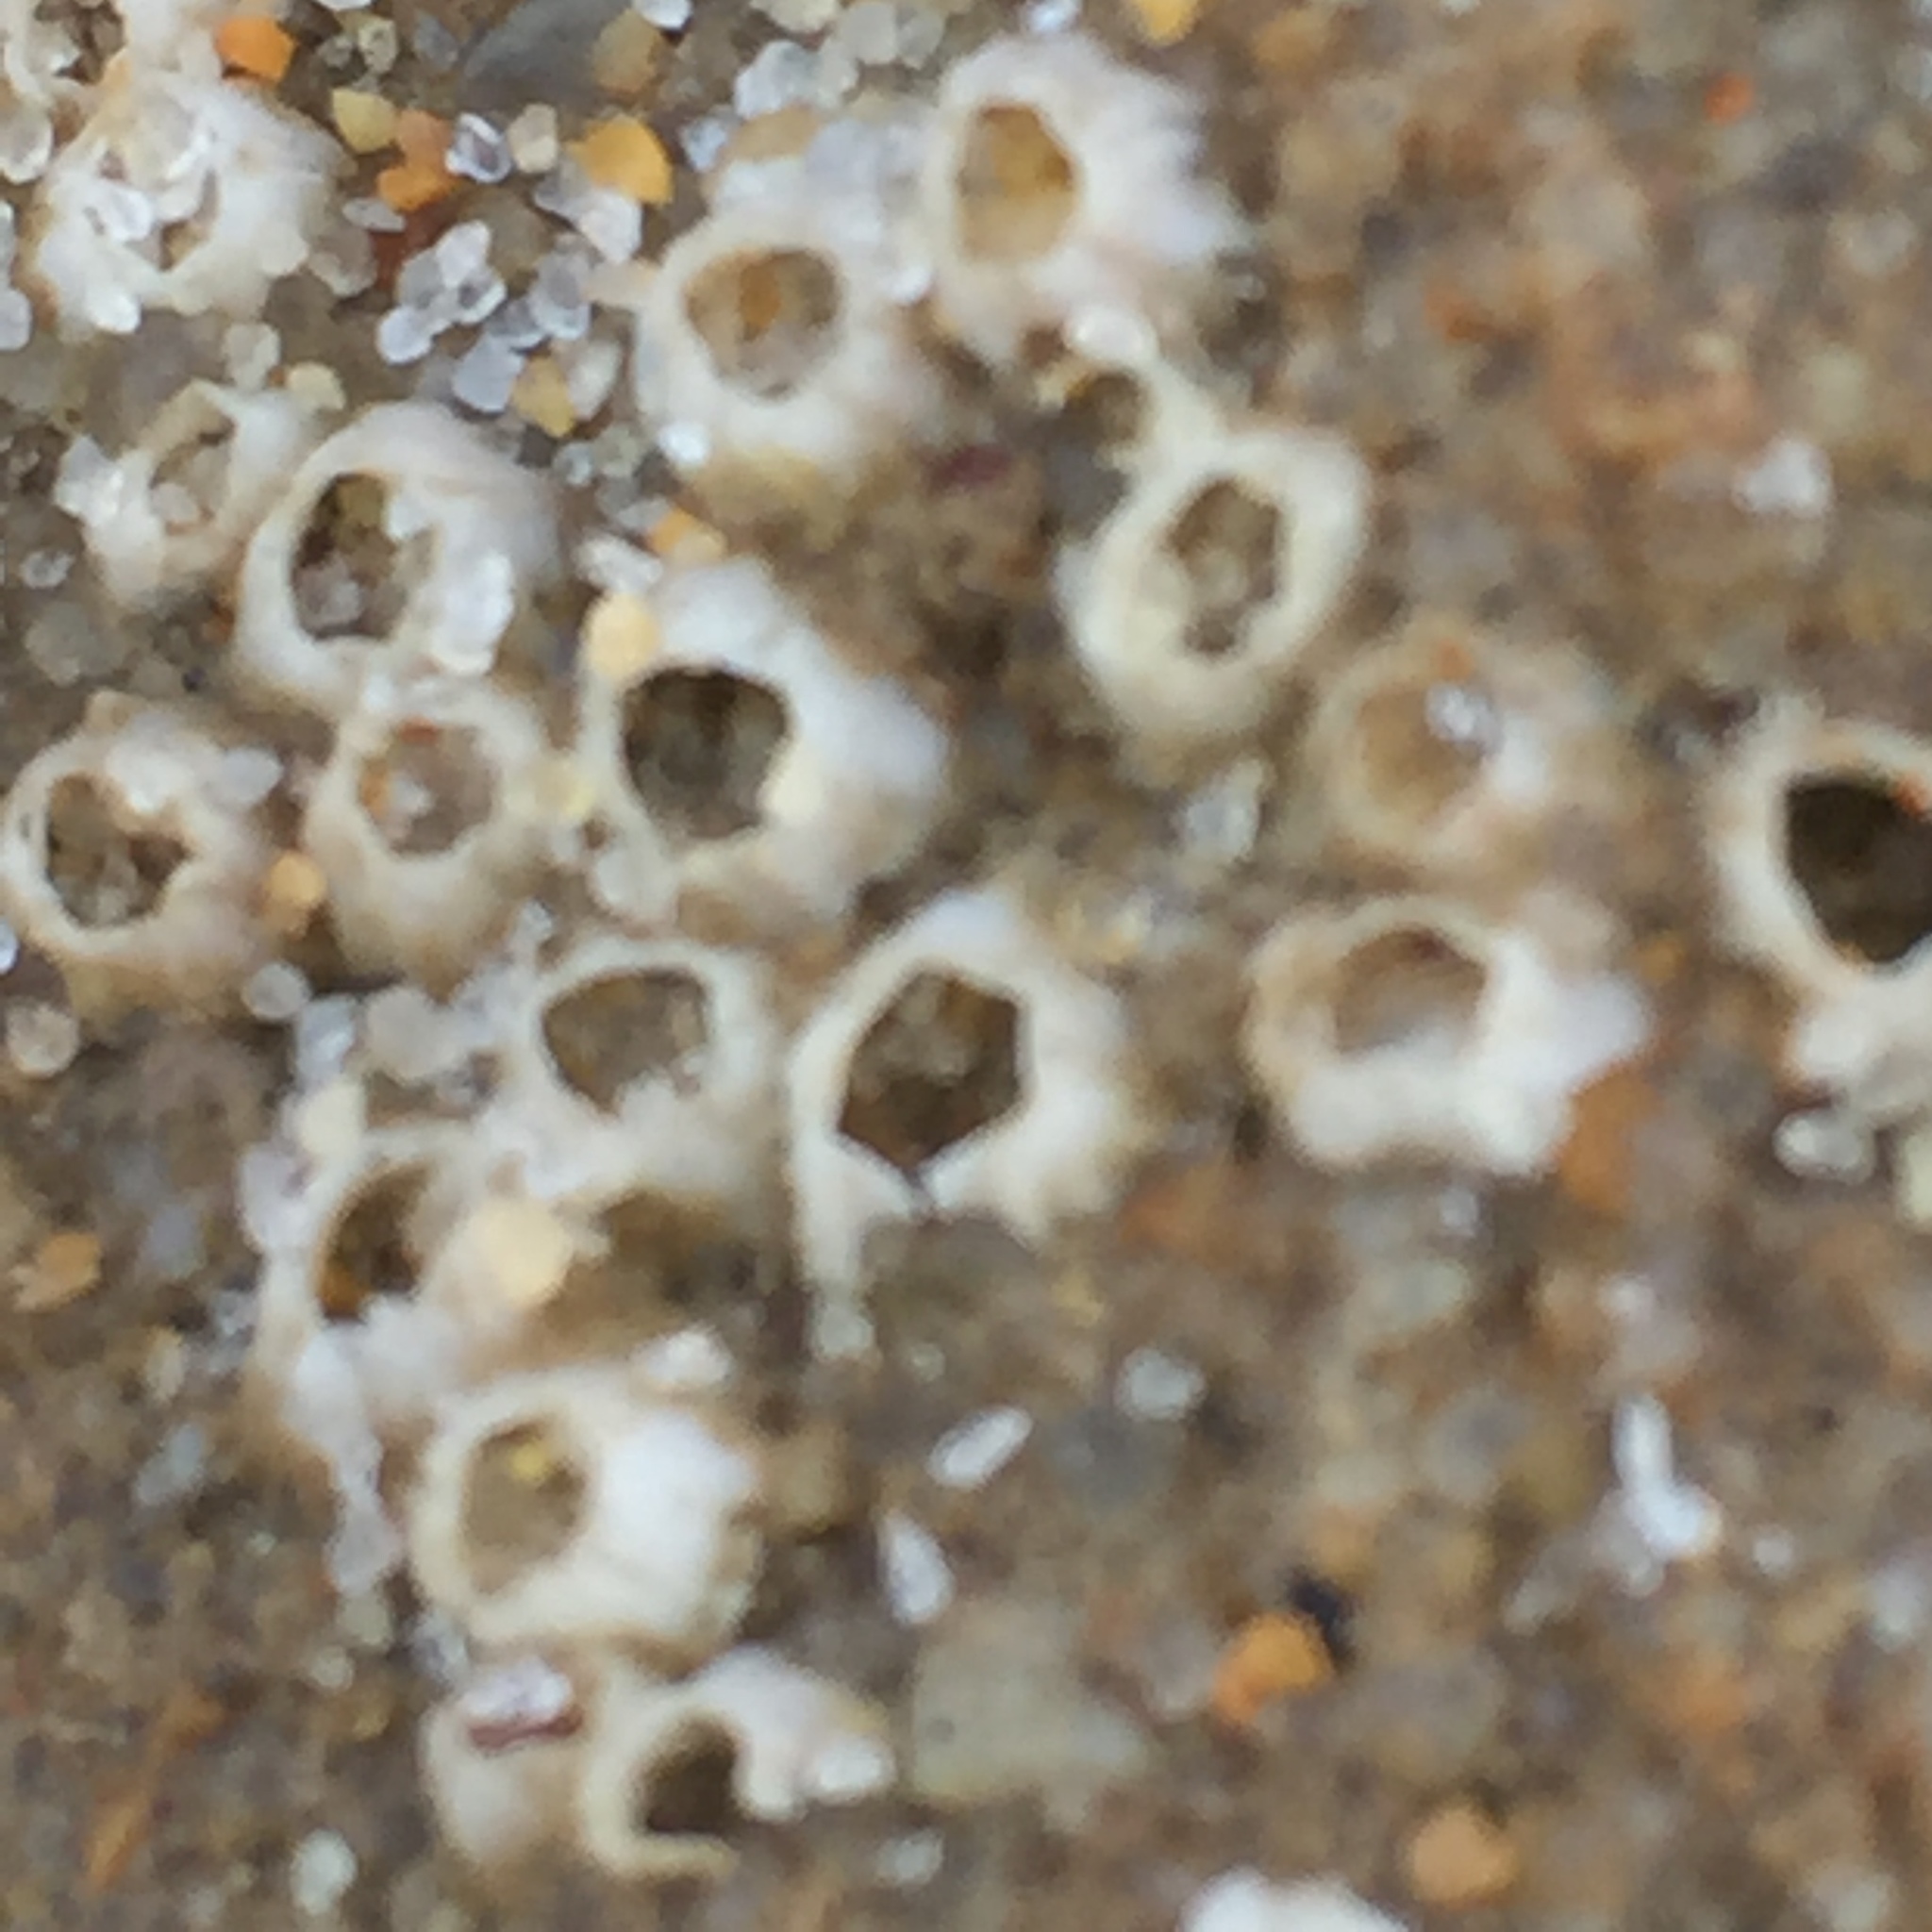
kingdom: Animalia
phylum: Arthropoda
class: Maxillopoda
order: Sessilia
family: Balanidae
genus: Amphibalanus
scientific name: Amphibalanus amphitrite
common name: Striped acorn barnacle
